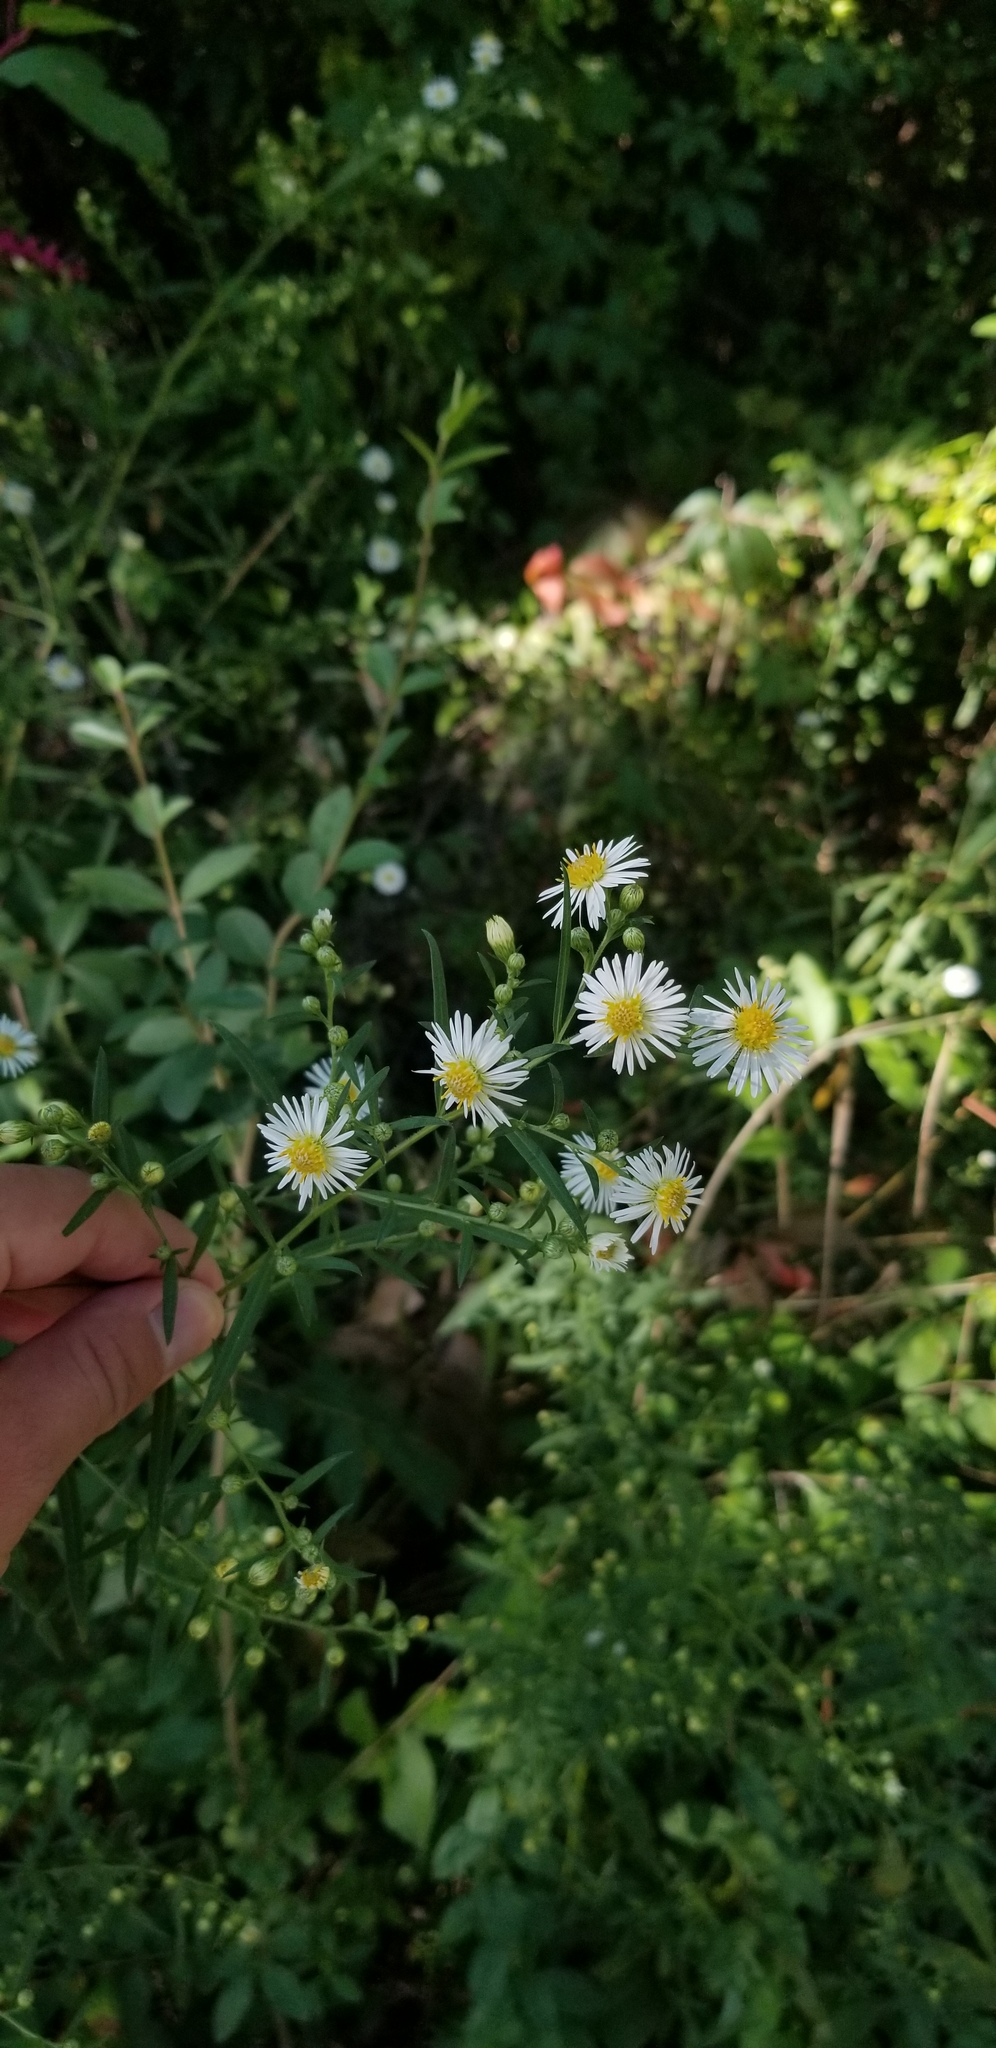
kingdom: Plantae
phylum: Tracheophyta
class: Magnoliopsida
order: Asterales
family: Asteraceae
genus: Symphyotrichum
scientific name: Symphyotrichum lanceolatum
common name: Panicled aster
